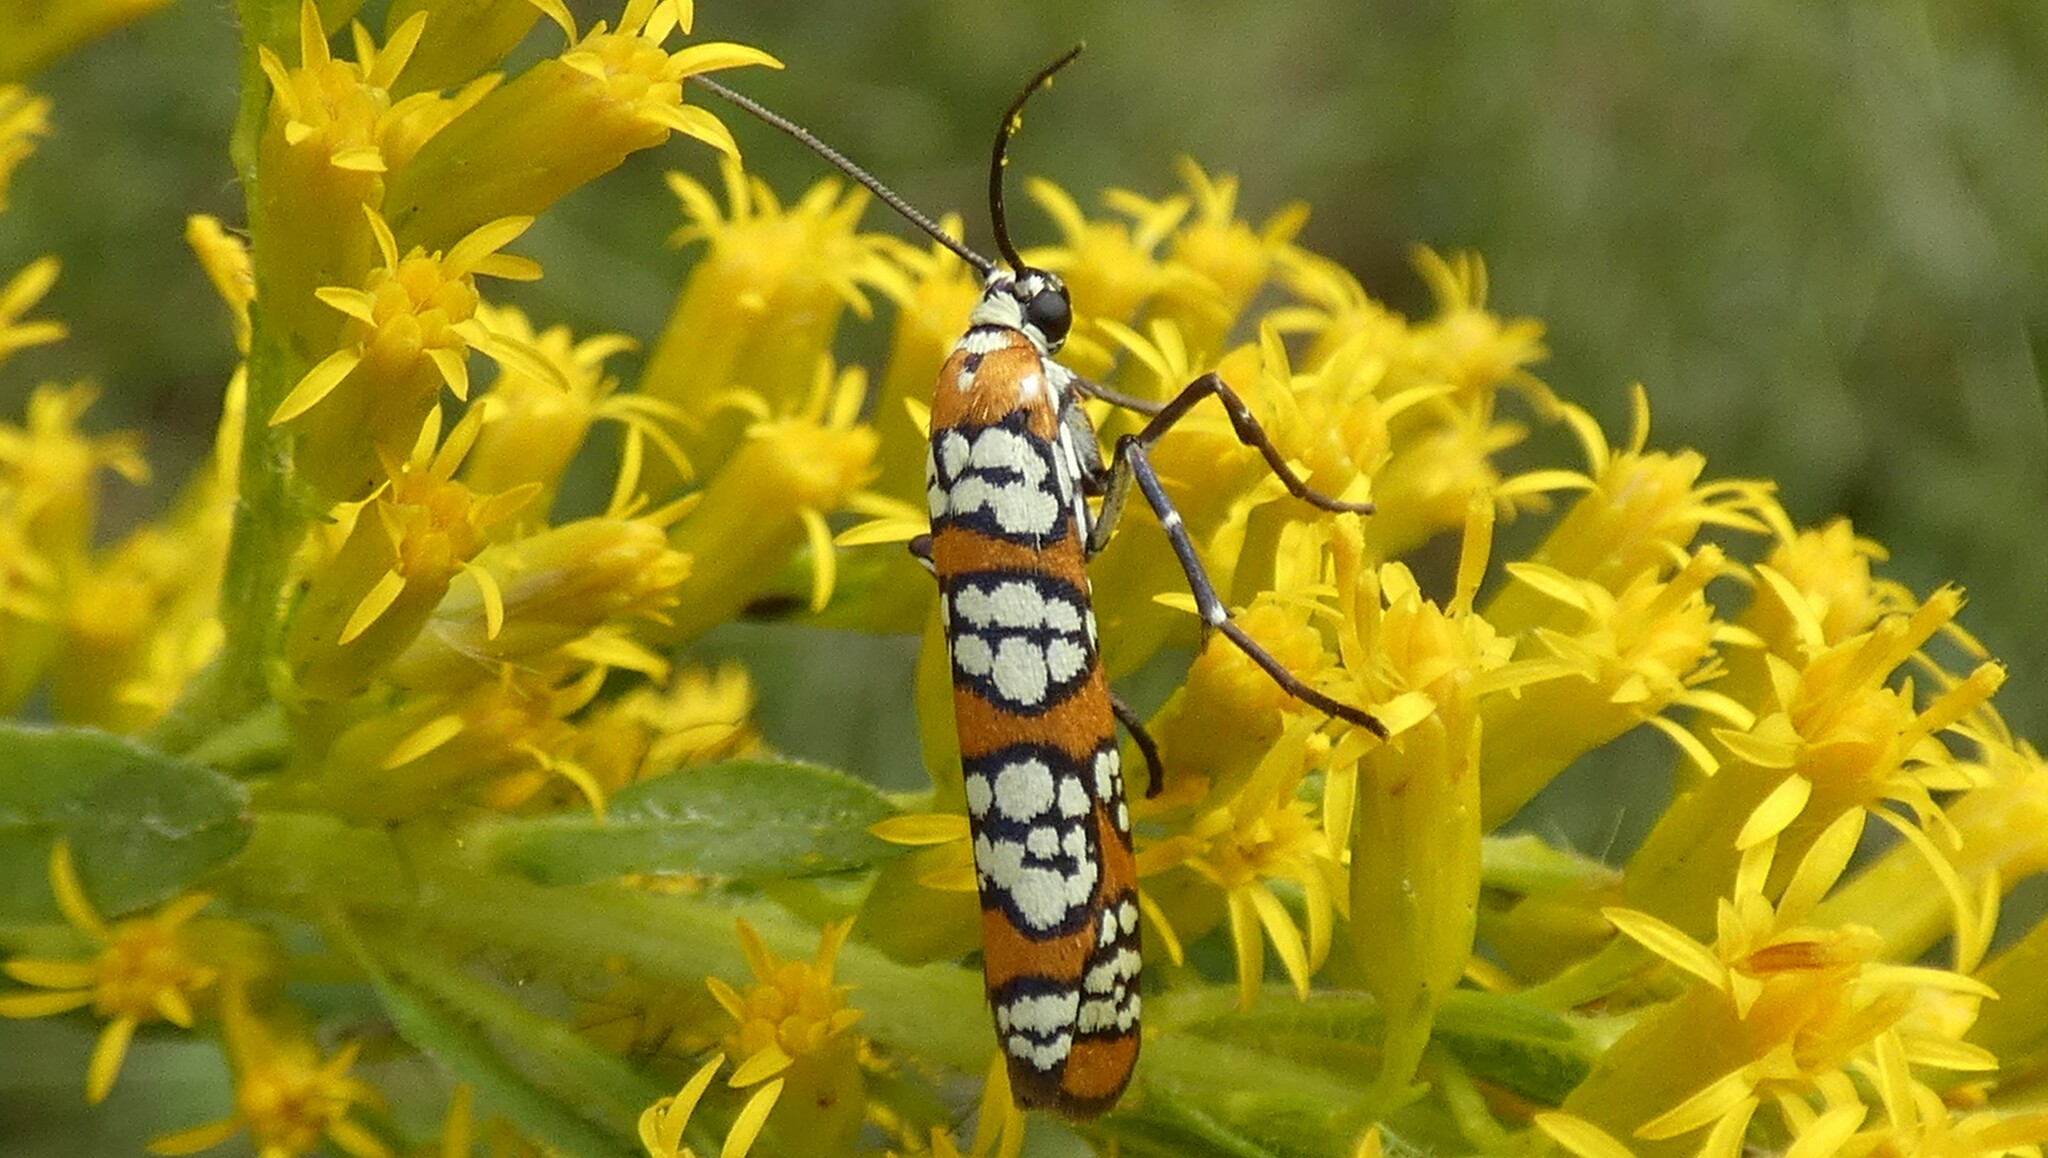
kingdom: Animalia
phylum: Arthropoda
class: Insecta
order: Lepidoptera
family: Attevidae
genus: Atteva
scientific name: Atteva punctella
